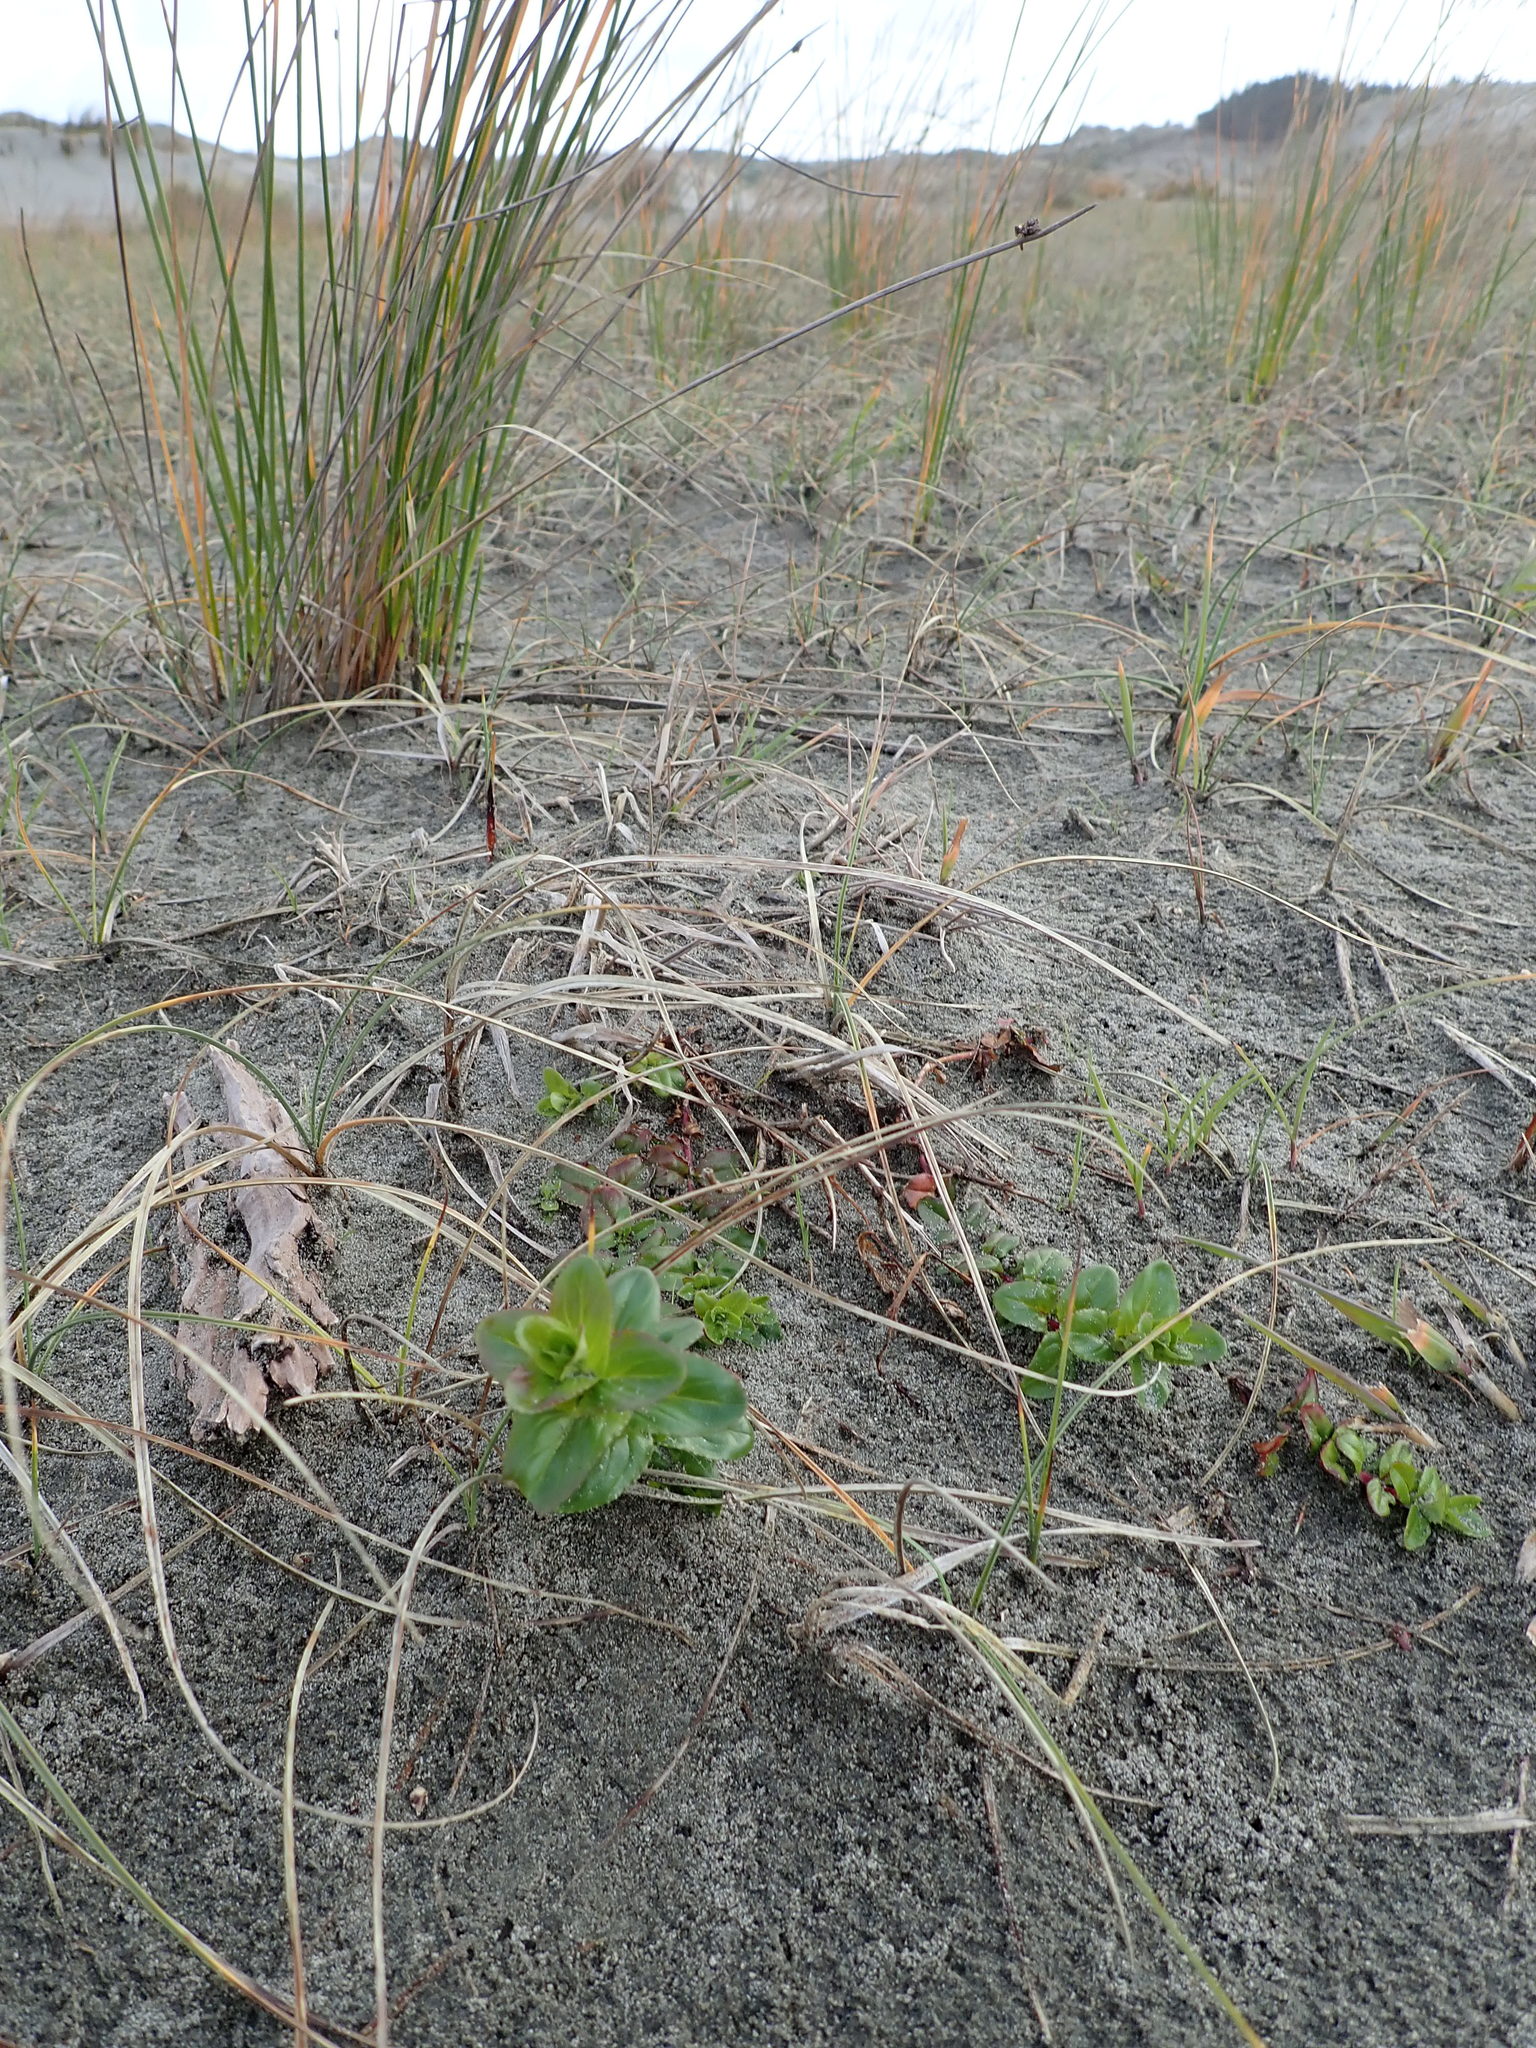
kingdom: Plantae
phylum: Tracheophyta
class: Magnoliopsida
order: Myrtales
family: Onagraceae
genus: Epilobium
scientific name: Epilobium billardiereanum
